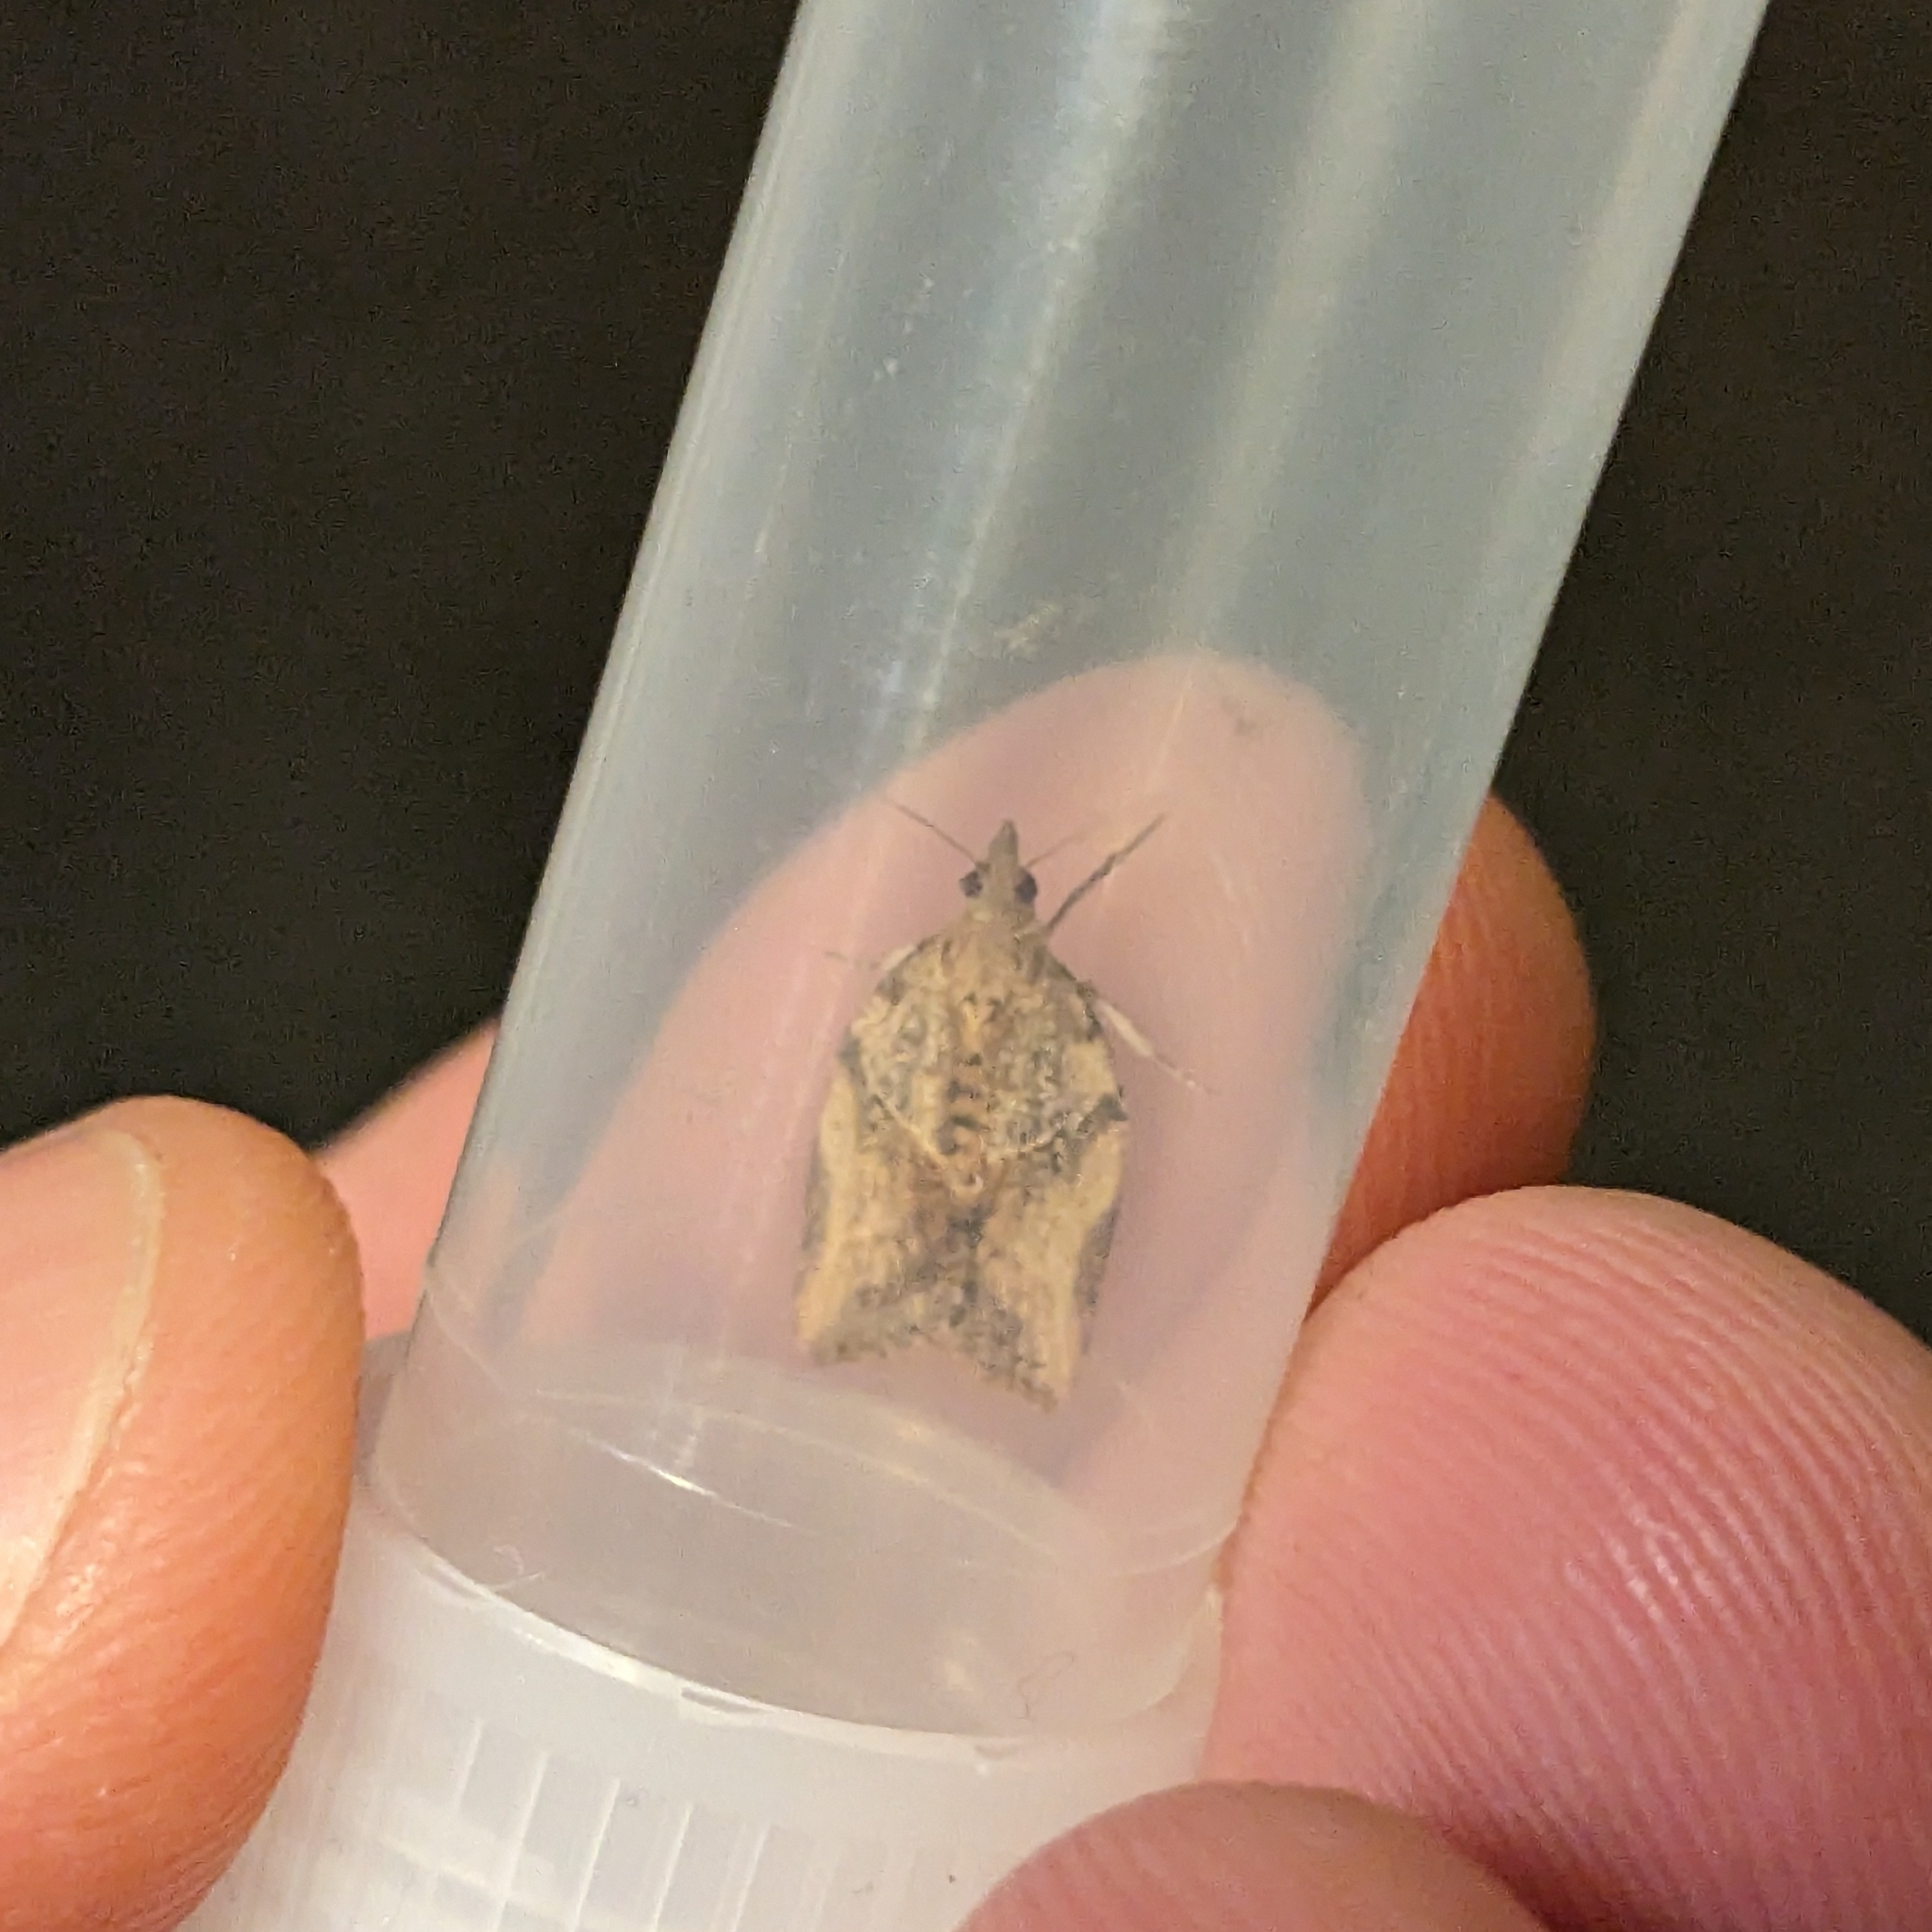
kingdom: Animalia
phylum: Arthropoda
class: Insecta
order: Lepidoptera
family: Tortricidae
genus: Epiphyas
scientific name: Epiphyas postvittana
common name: Light brown apple moth
